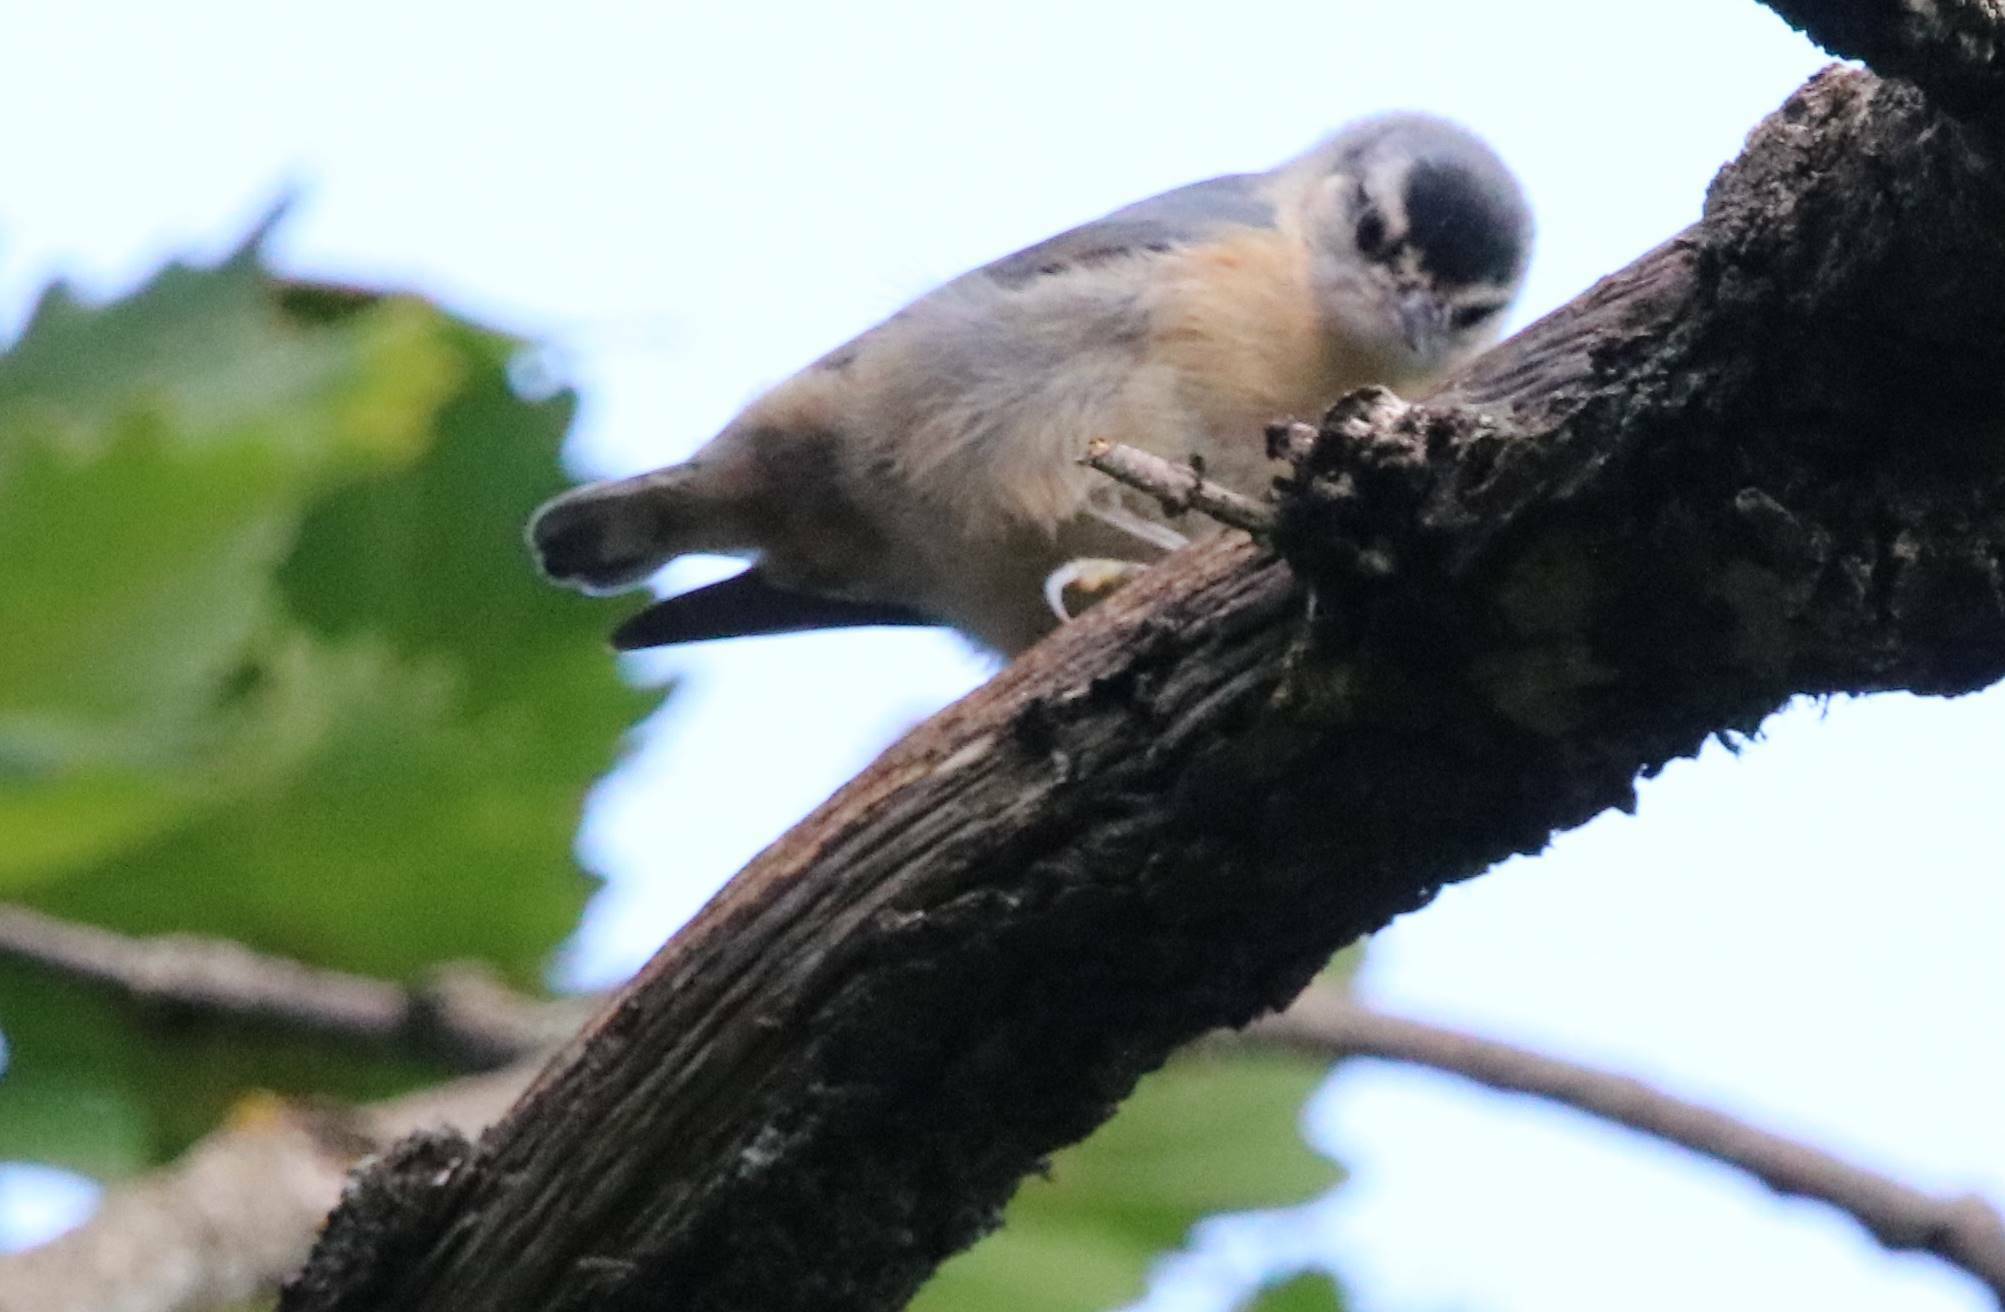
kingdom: Animalia
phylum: Chordata
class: Aves
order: Passeriformes
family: Sittidae
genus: Sitta
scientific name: Sitta ledanti
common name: Algerian nuthatch
